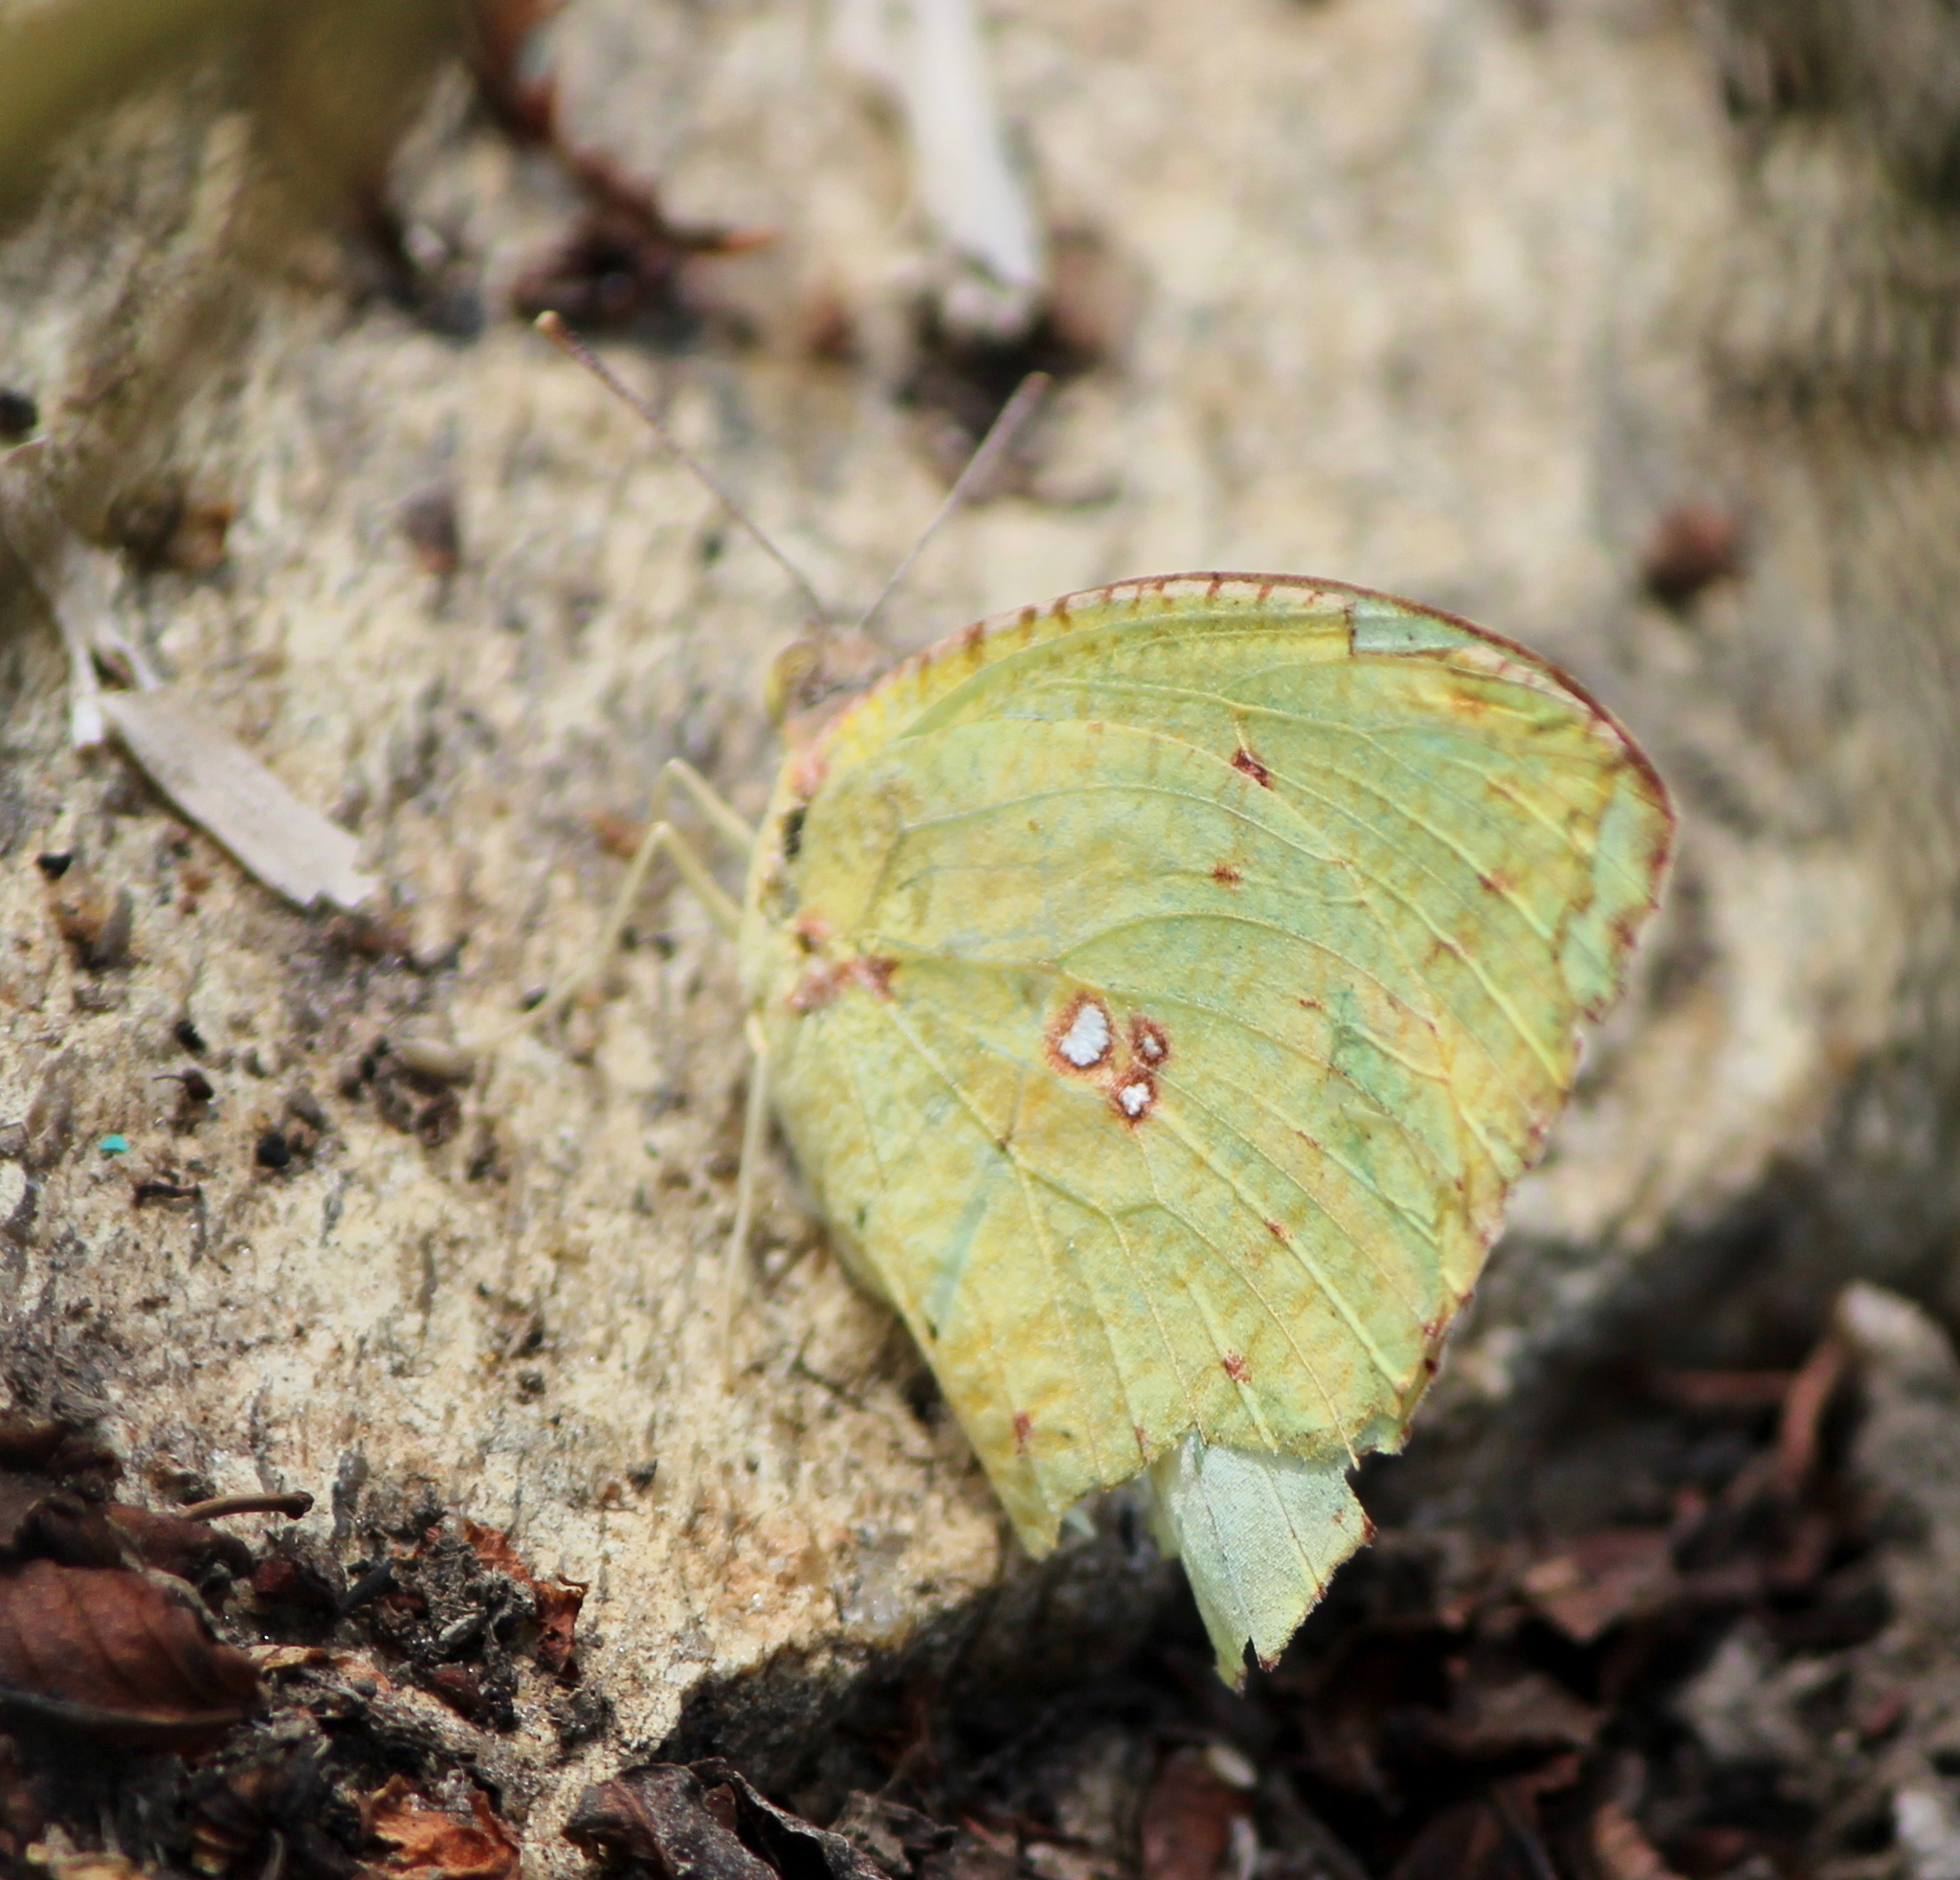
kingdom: Animalia
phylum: Arthropoda
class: Insecta
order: Lepidoptera
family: Pieridae
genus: Catopsilia
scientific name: Catopsilia pyranthe
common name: Mottled emigrant
